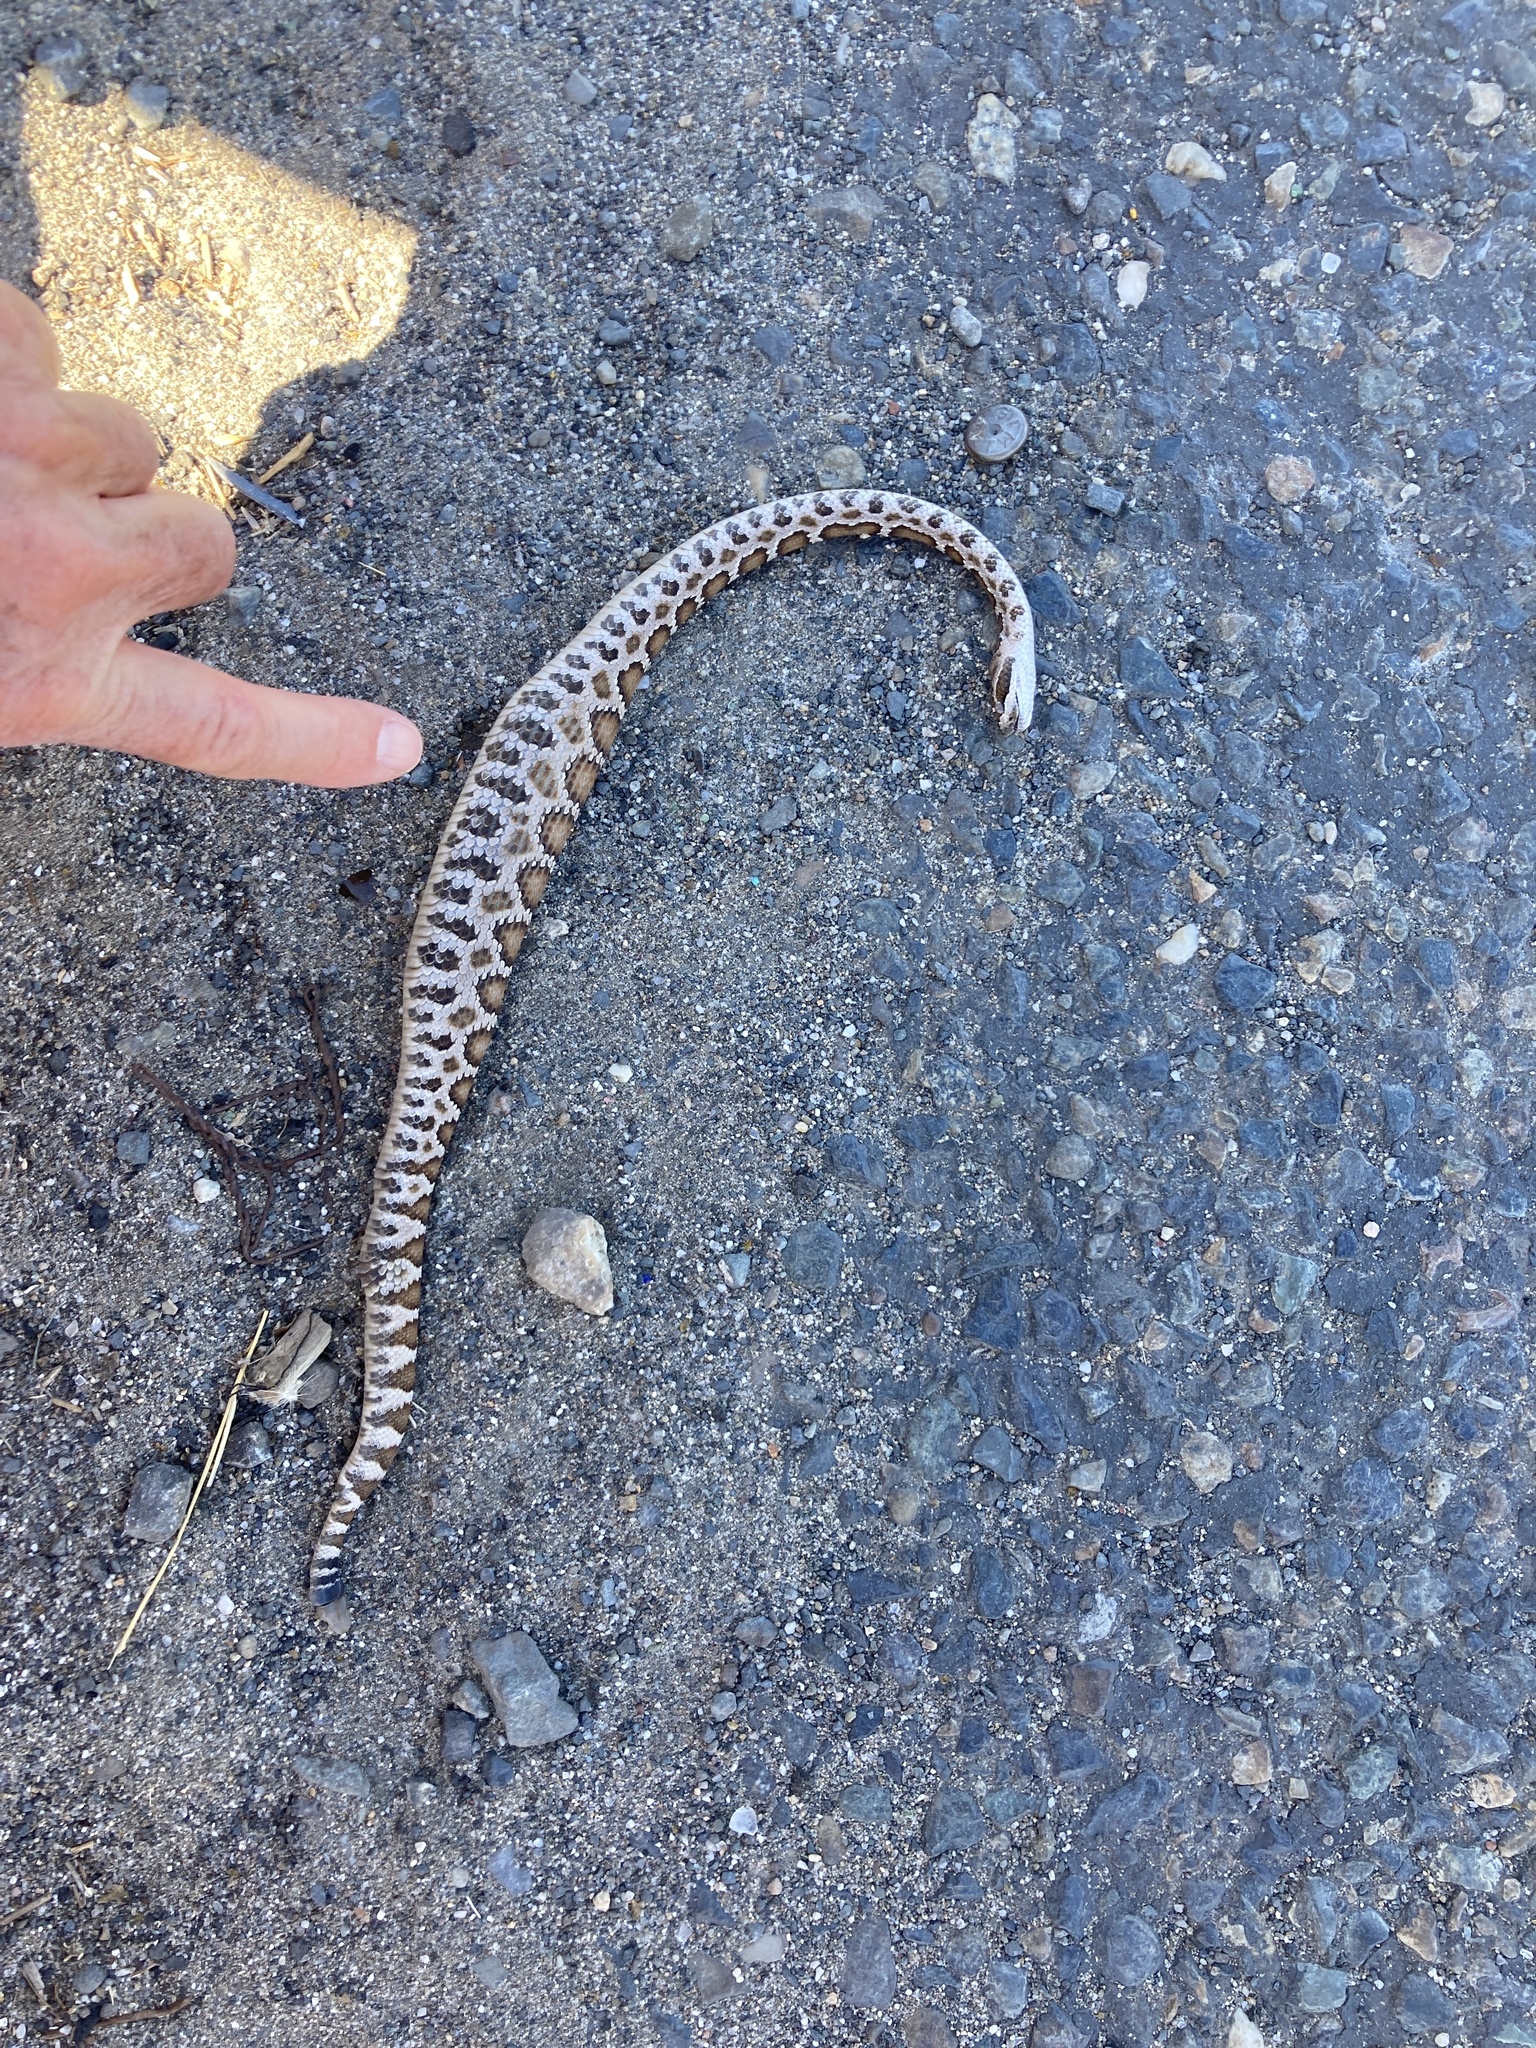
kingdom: Animalia
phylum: Chordata
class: Squamata
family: Viperidae
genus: Crotalus
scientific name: Crotalus oreganus
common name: Abyssus
